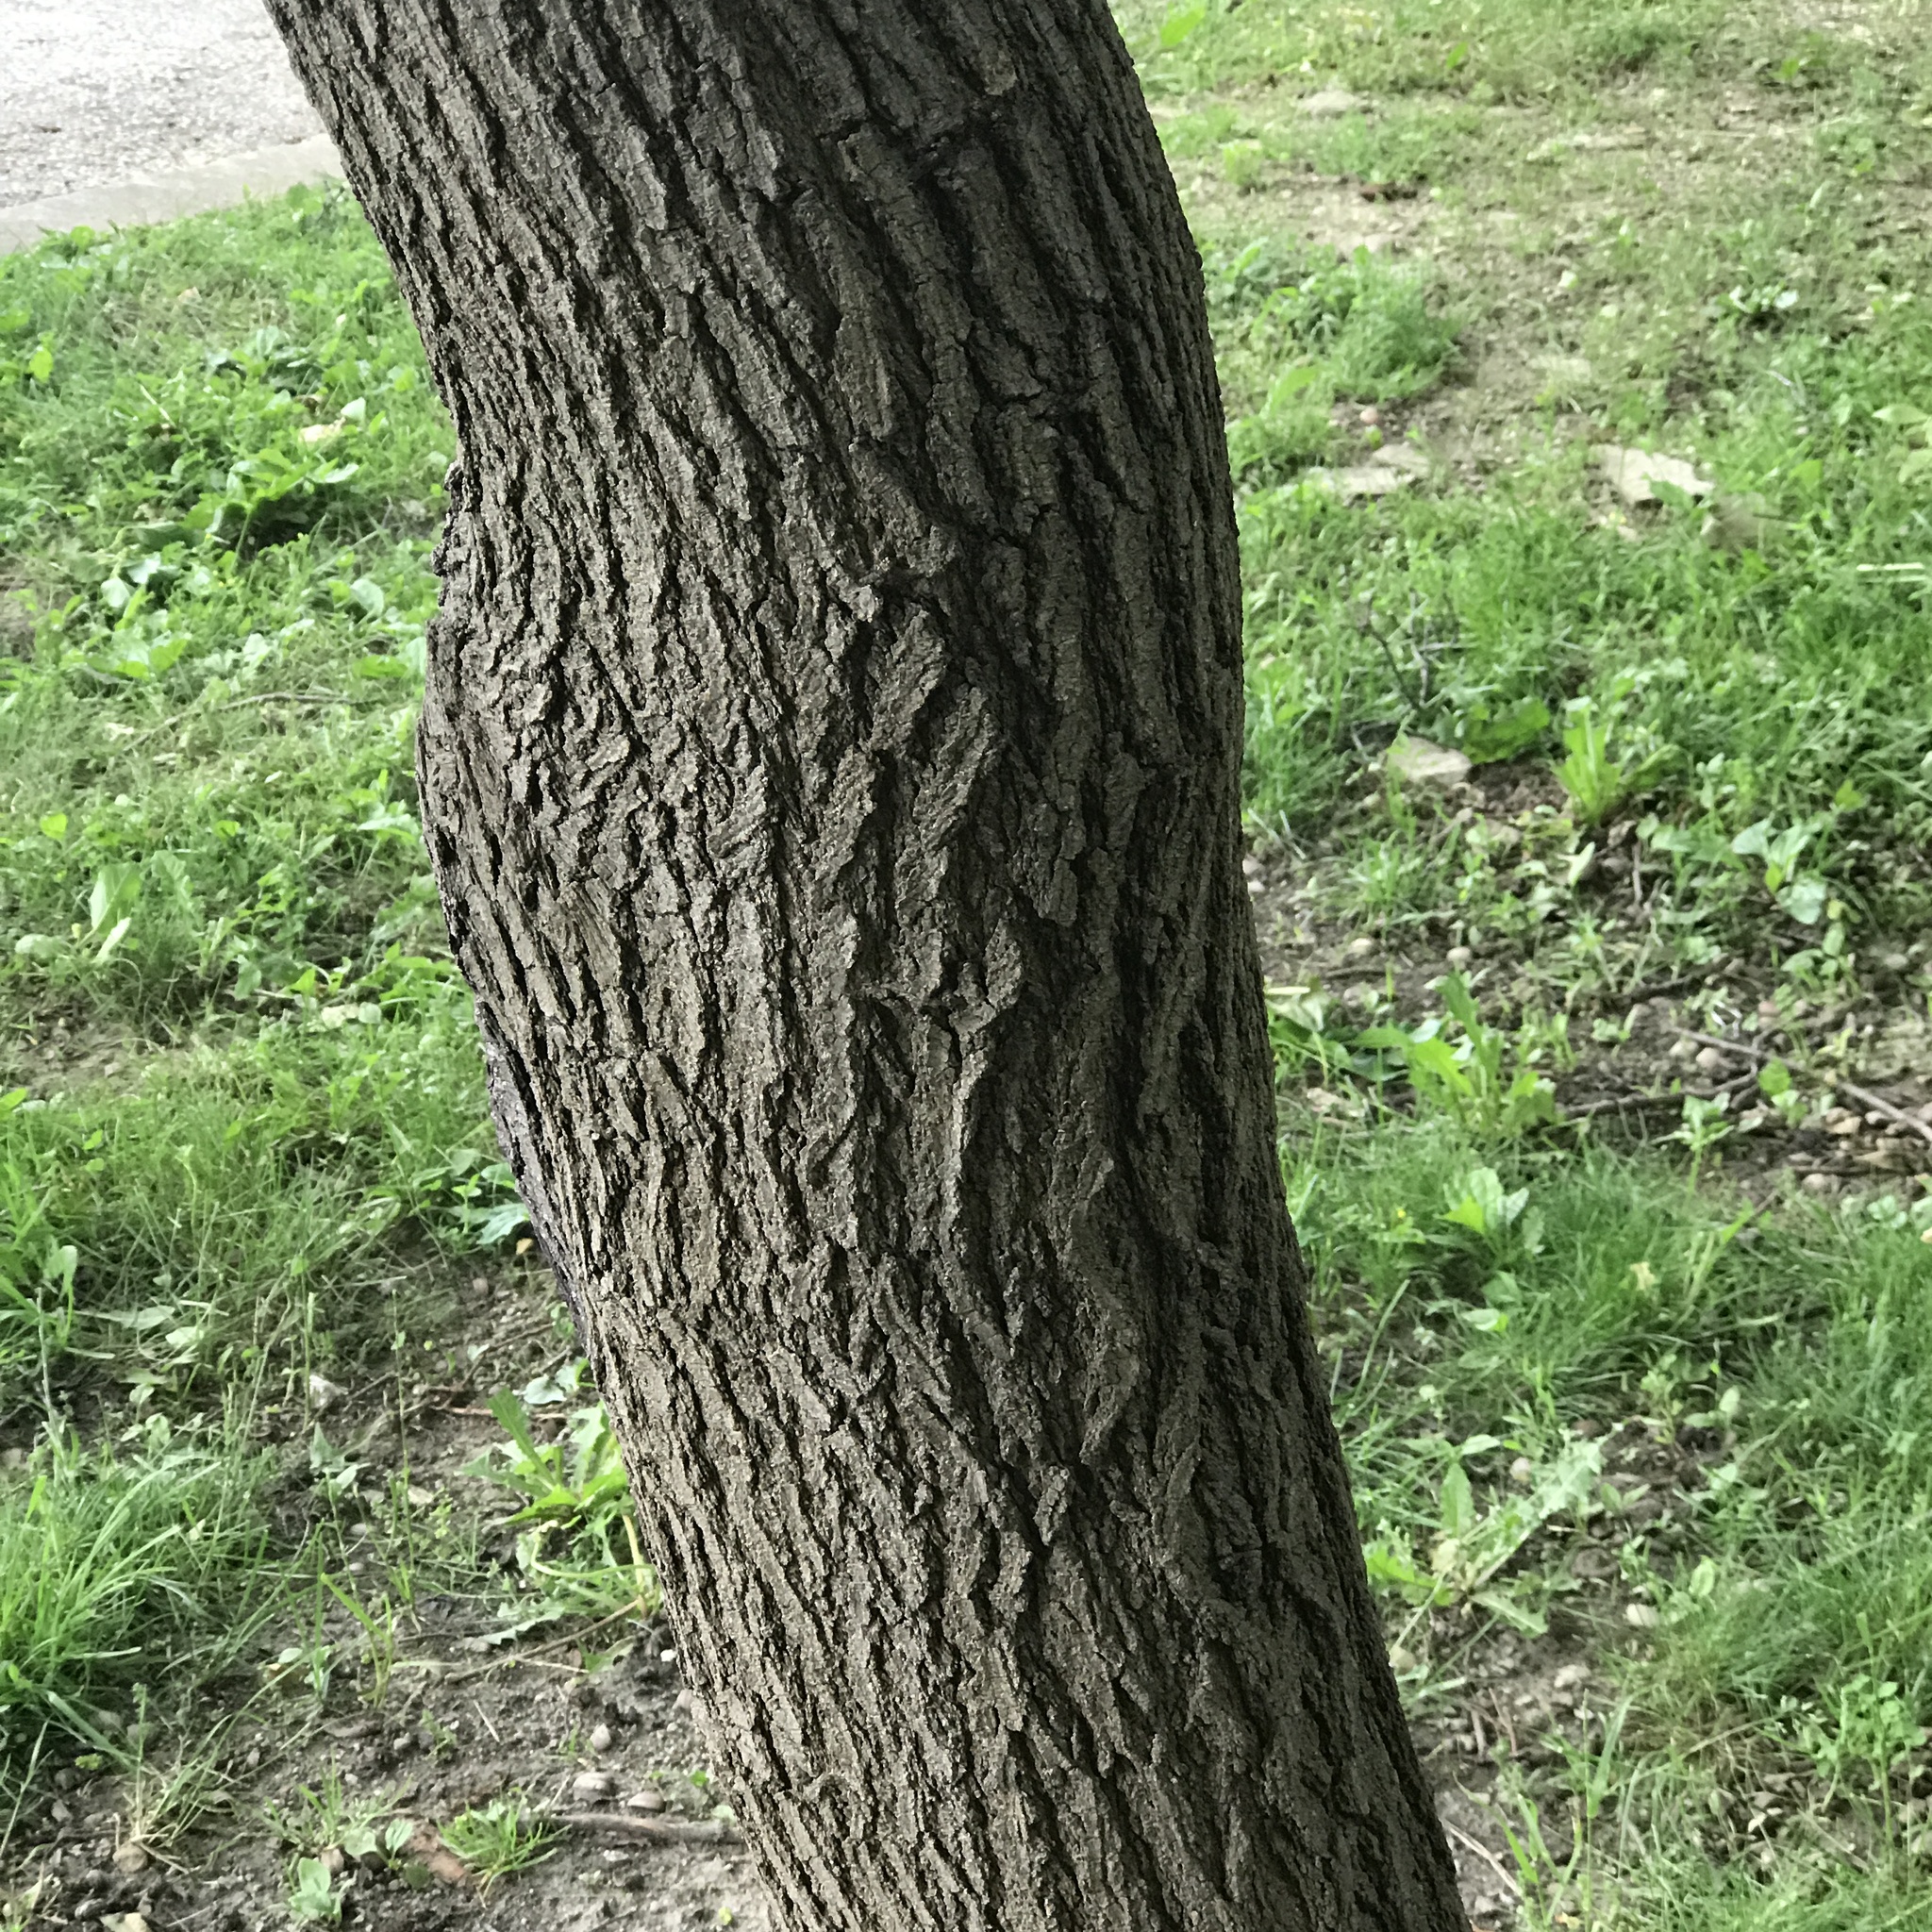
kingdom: Plantae
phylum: Tracheophyta
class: Magnoliopsida
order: Rosales
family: Moraceae
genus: Morus
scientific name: Morus alba
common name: White mulberry
